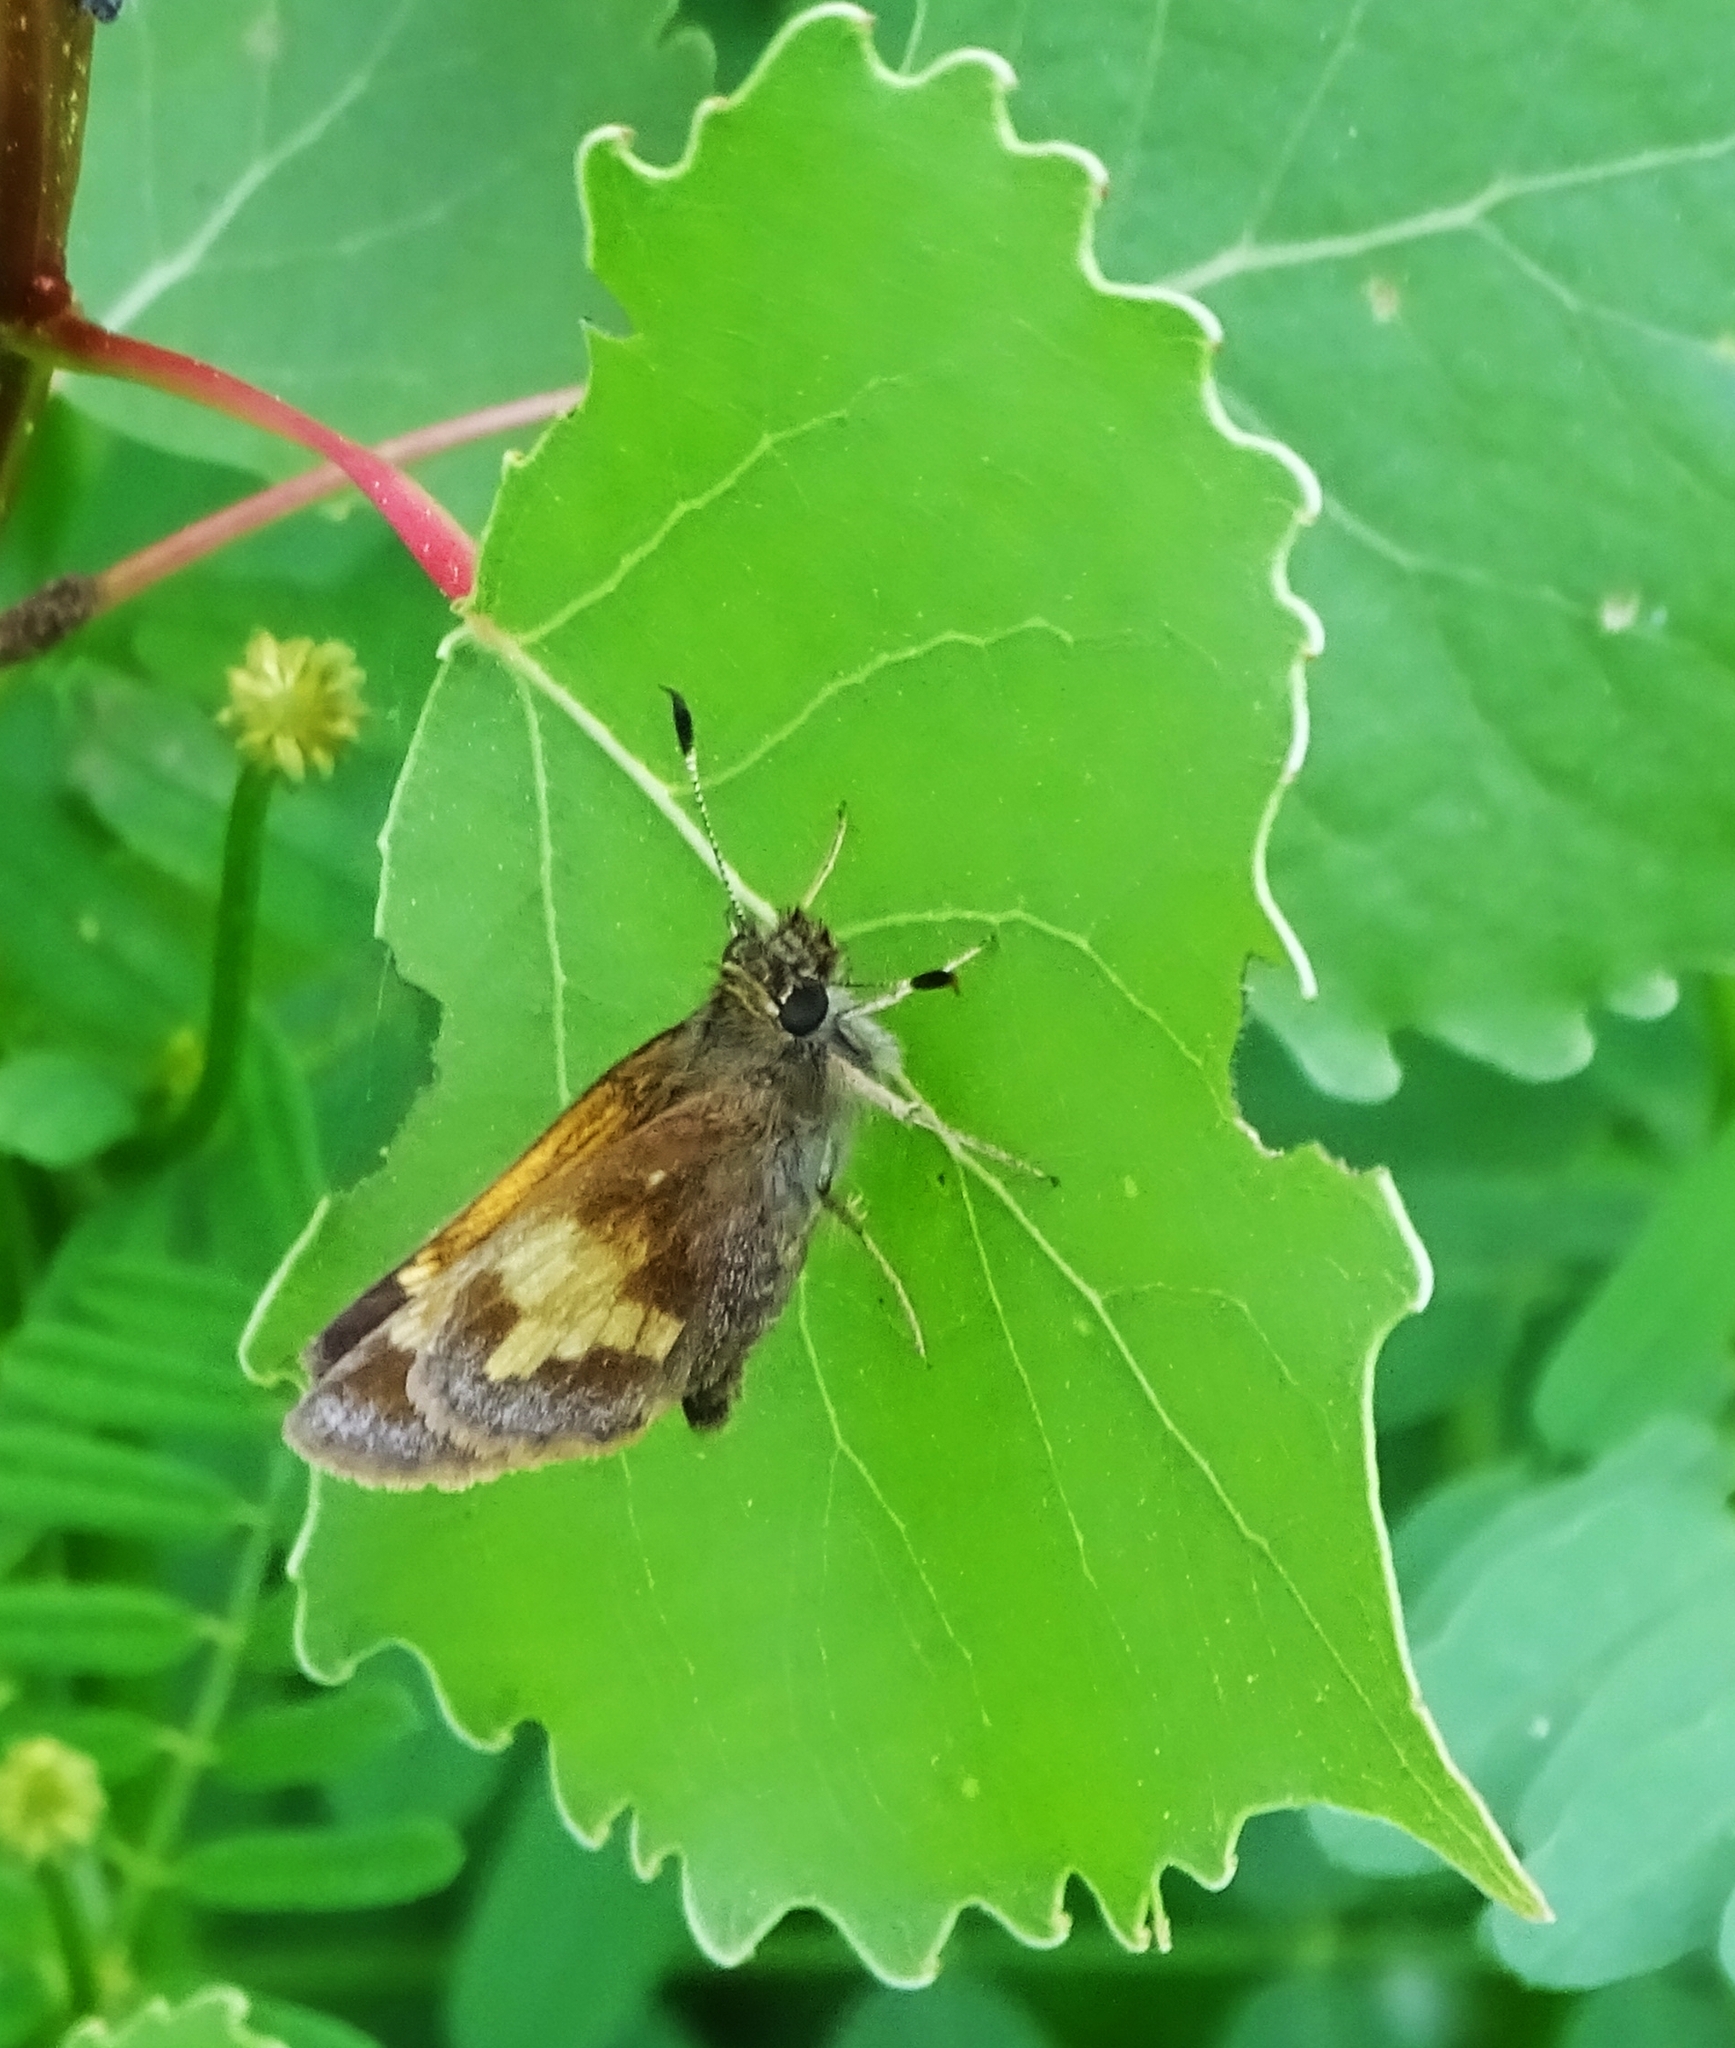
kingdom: Animalia
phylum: Arthropoda
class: Insecta
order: Lepidoptera
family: Hesperiidae
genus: Lon
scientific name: Lon hobomok
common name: Hobomok skipper
